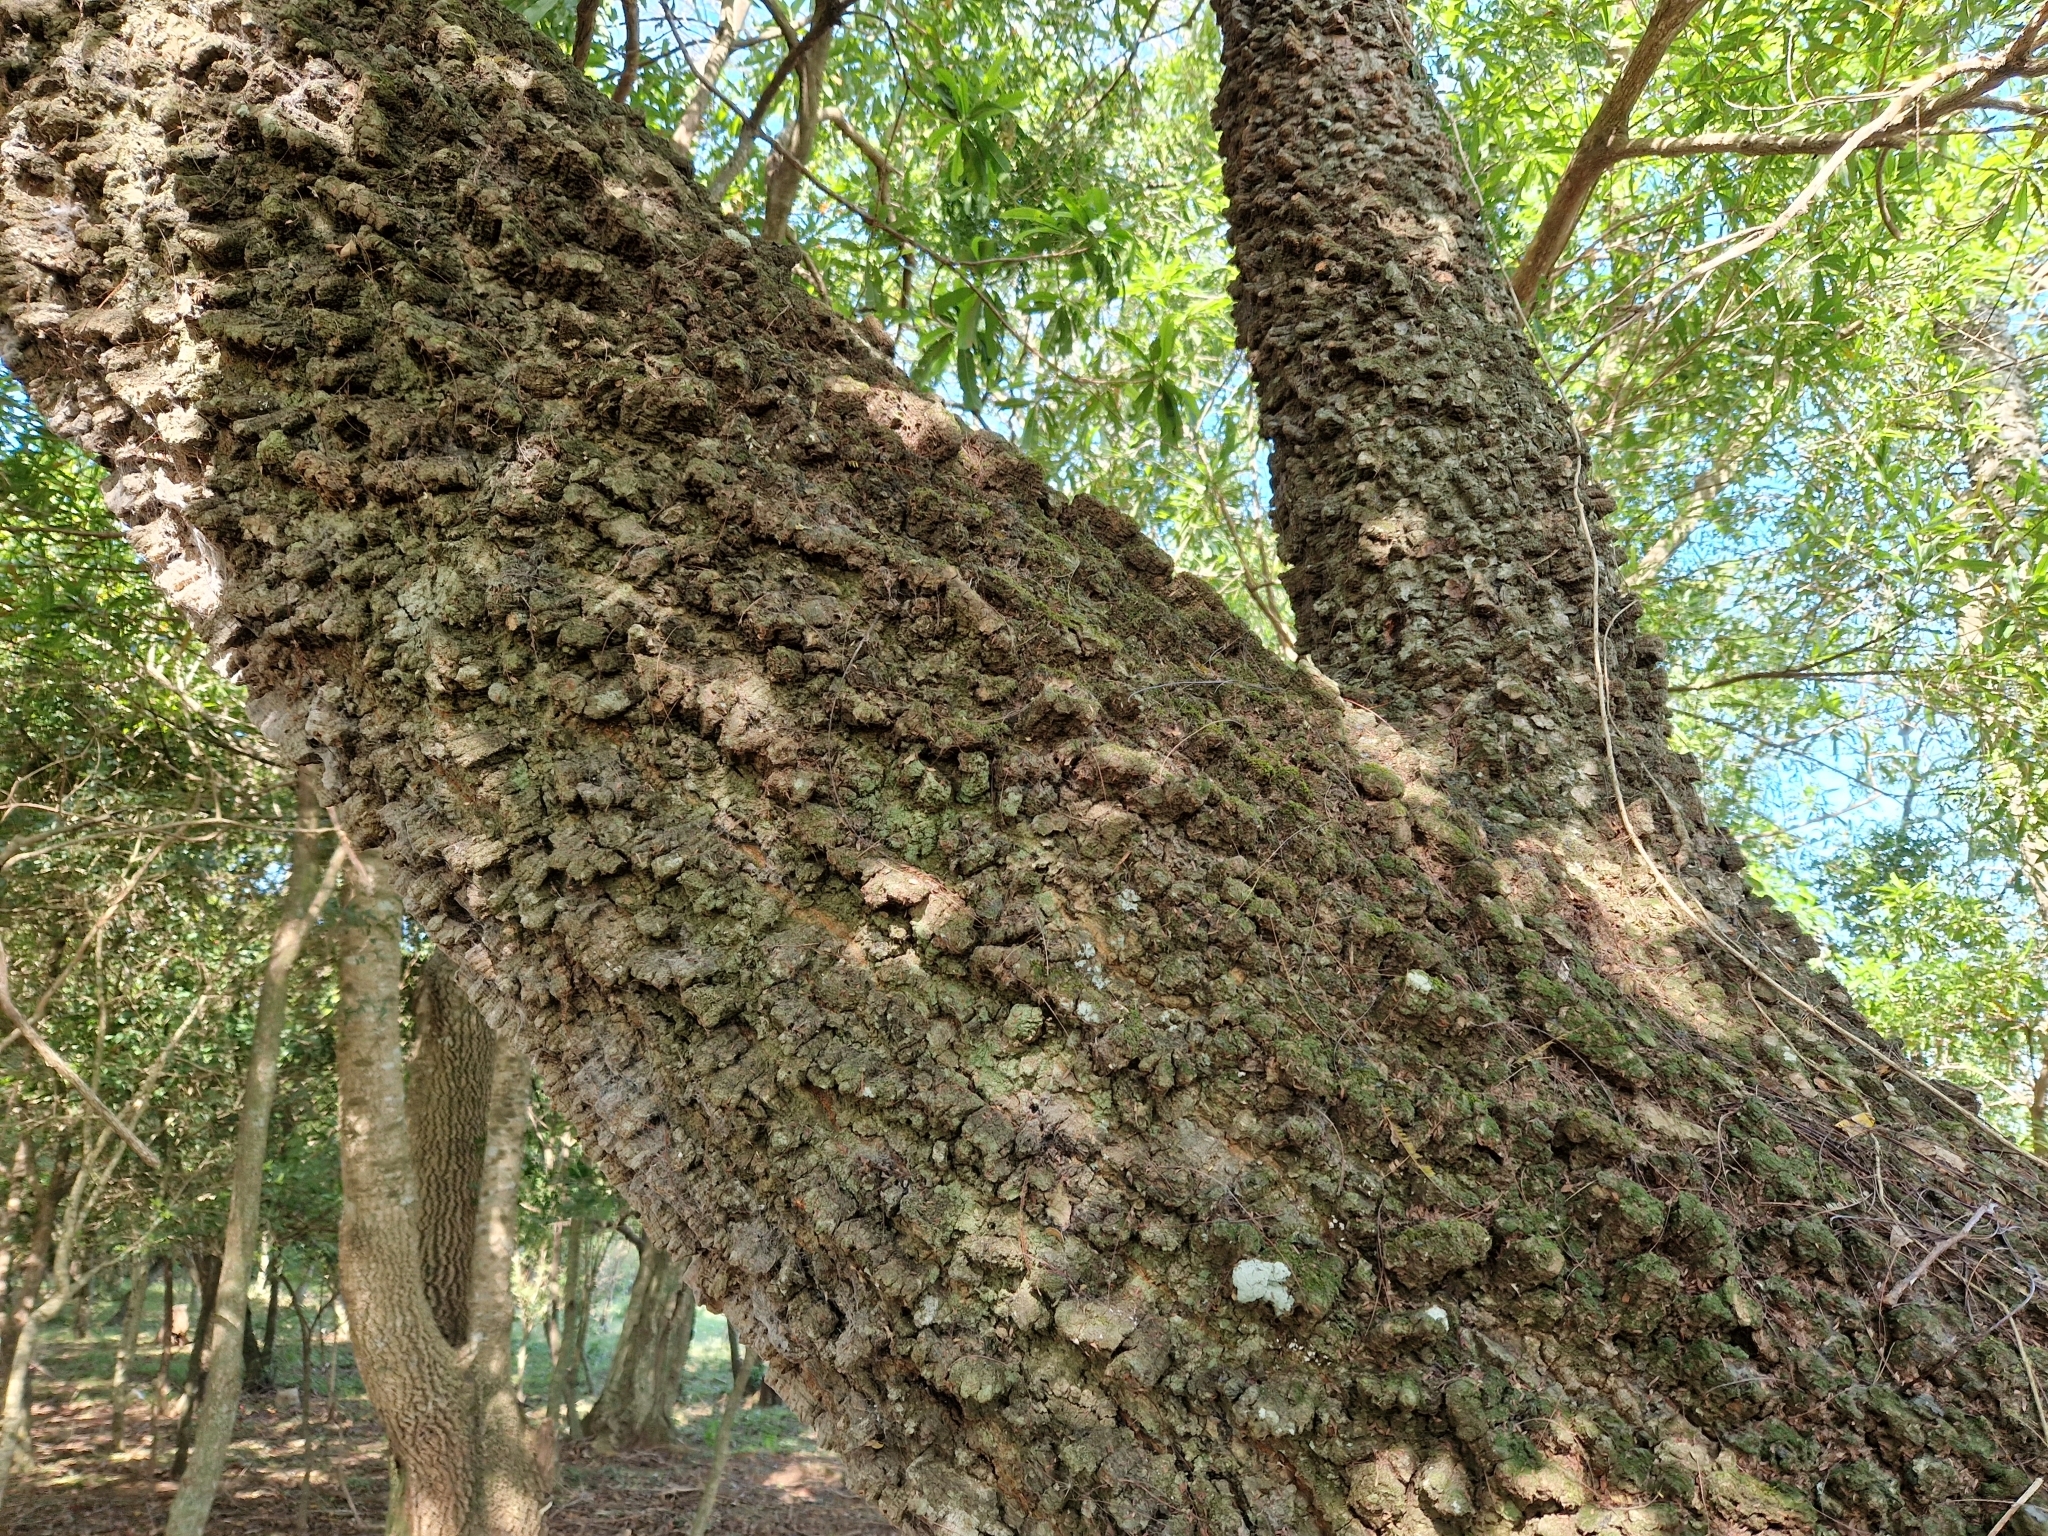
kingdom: Plantae
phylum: Tracheophyta
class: Magnoliopsida
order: Fabales
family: Fabaceae
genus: Anadenanthera
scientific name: Anadenanthera colubrina
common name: Curupay
